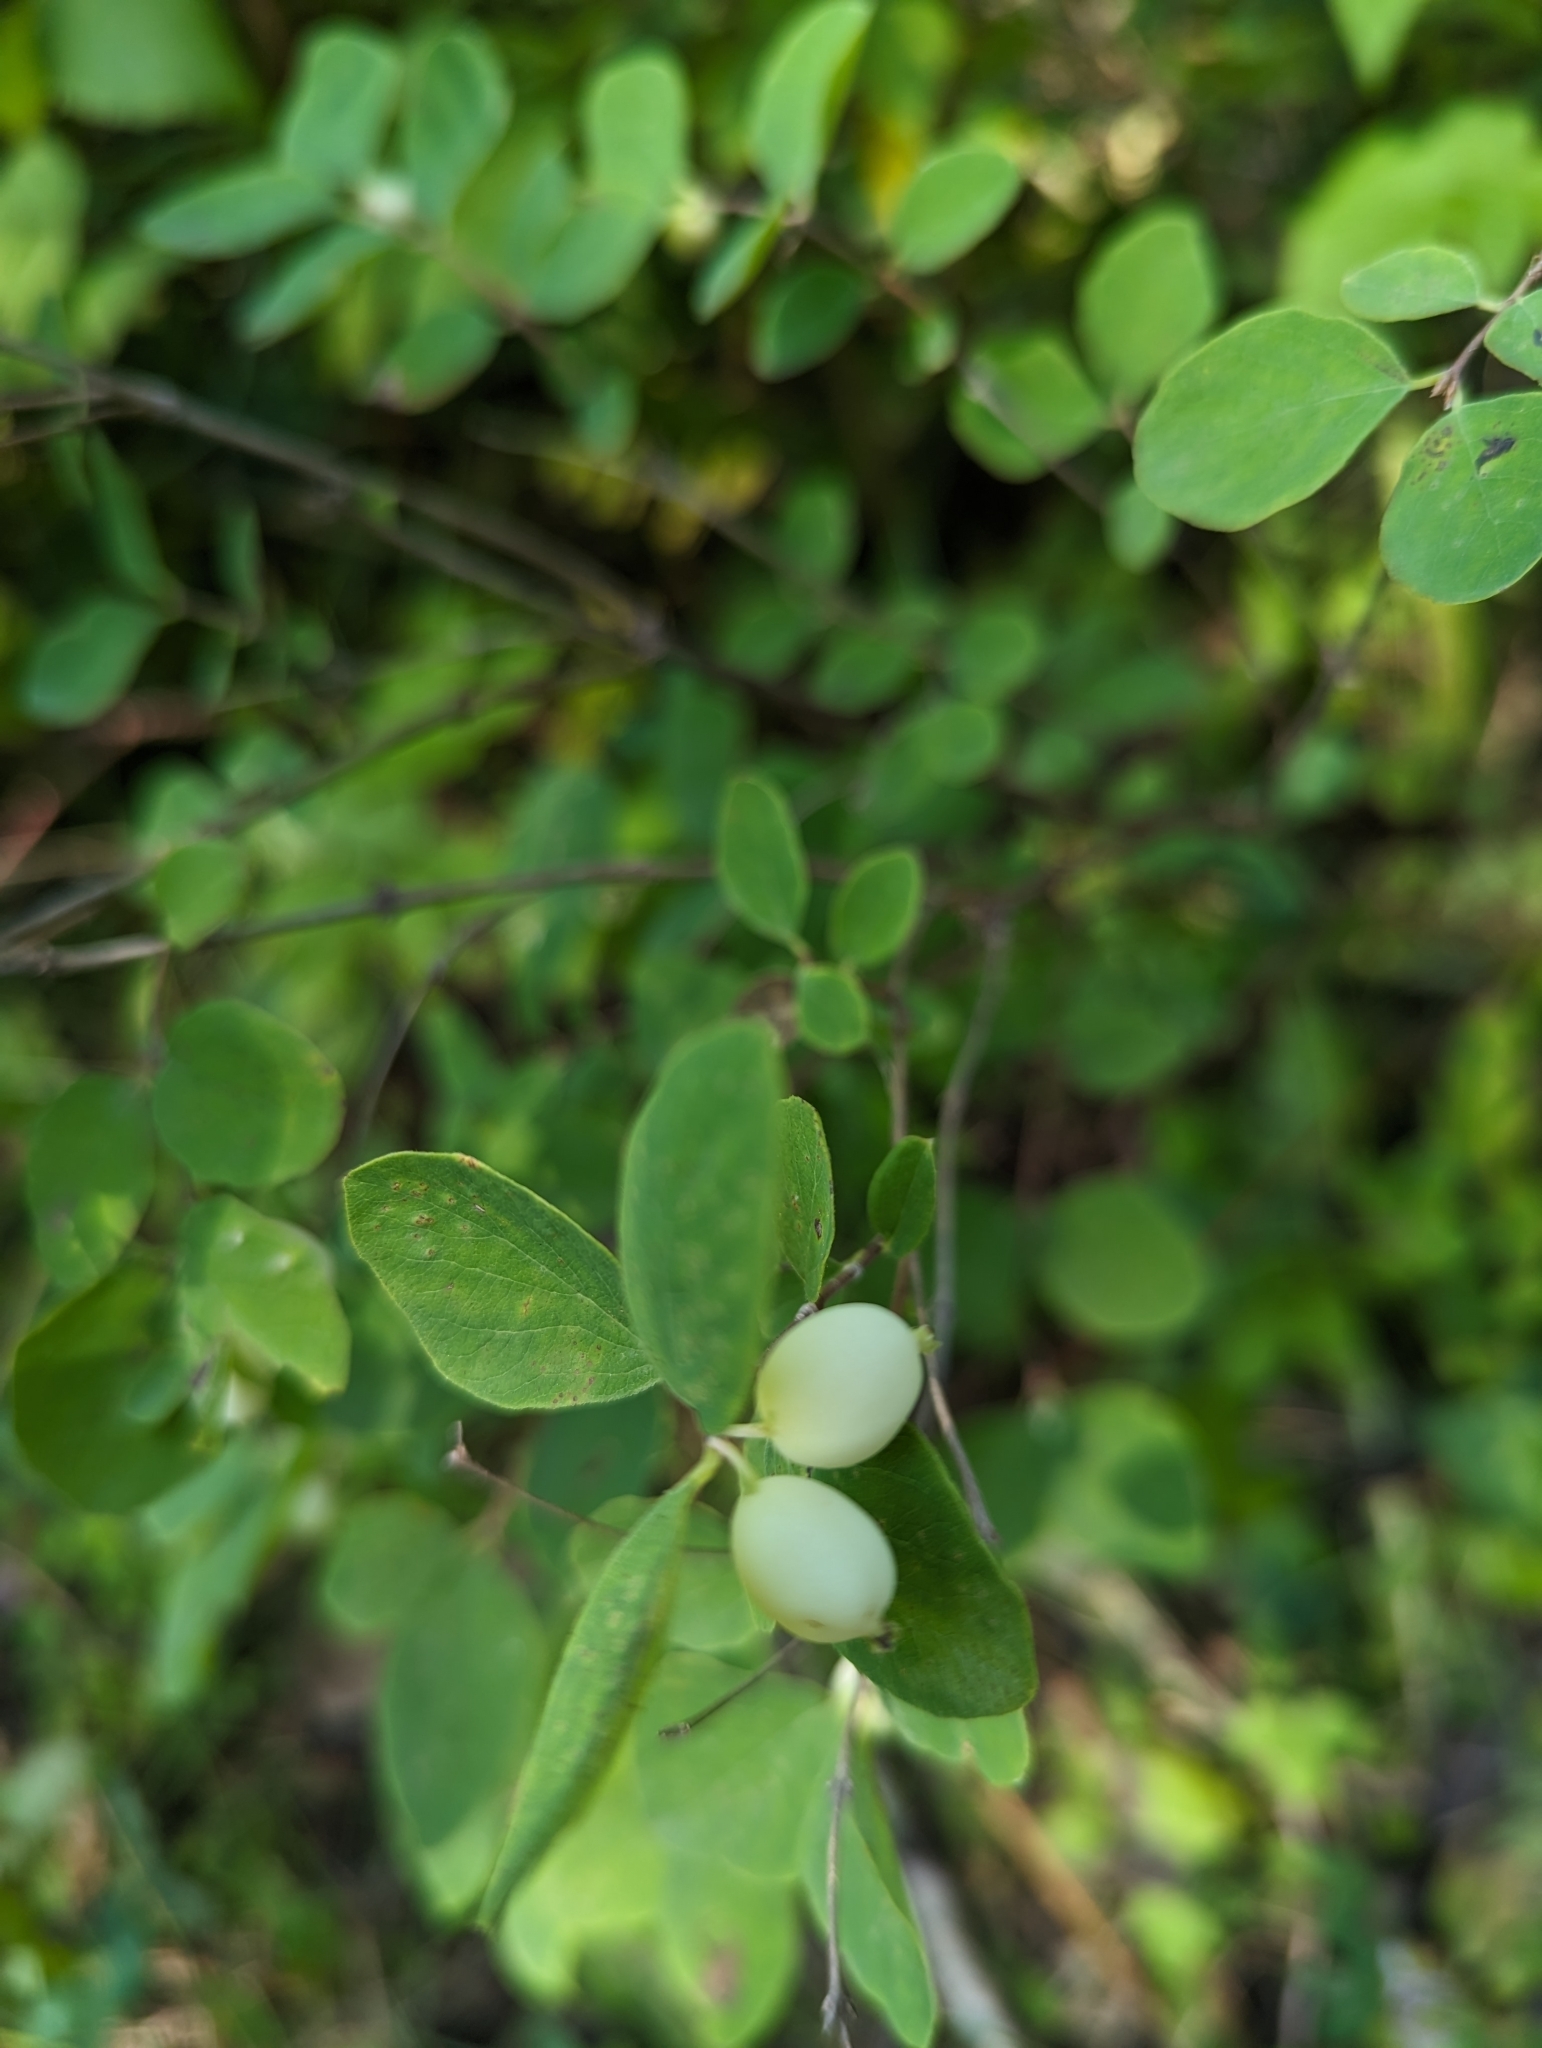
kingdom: Plantae
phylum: Tracheophyta
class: Magnoliopsida
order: Dipsacales
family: Caprifoliaceae
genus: Symphoricarpos
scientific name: Symphoricarpos albus
